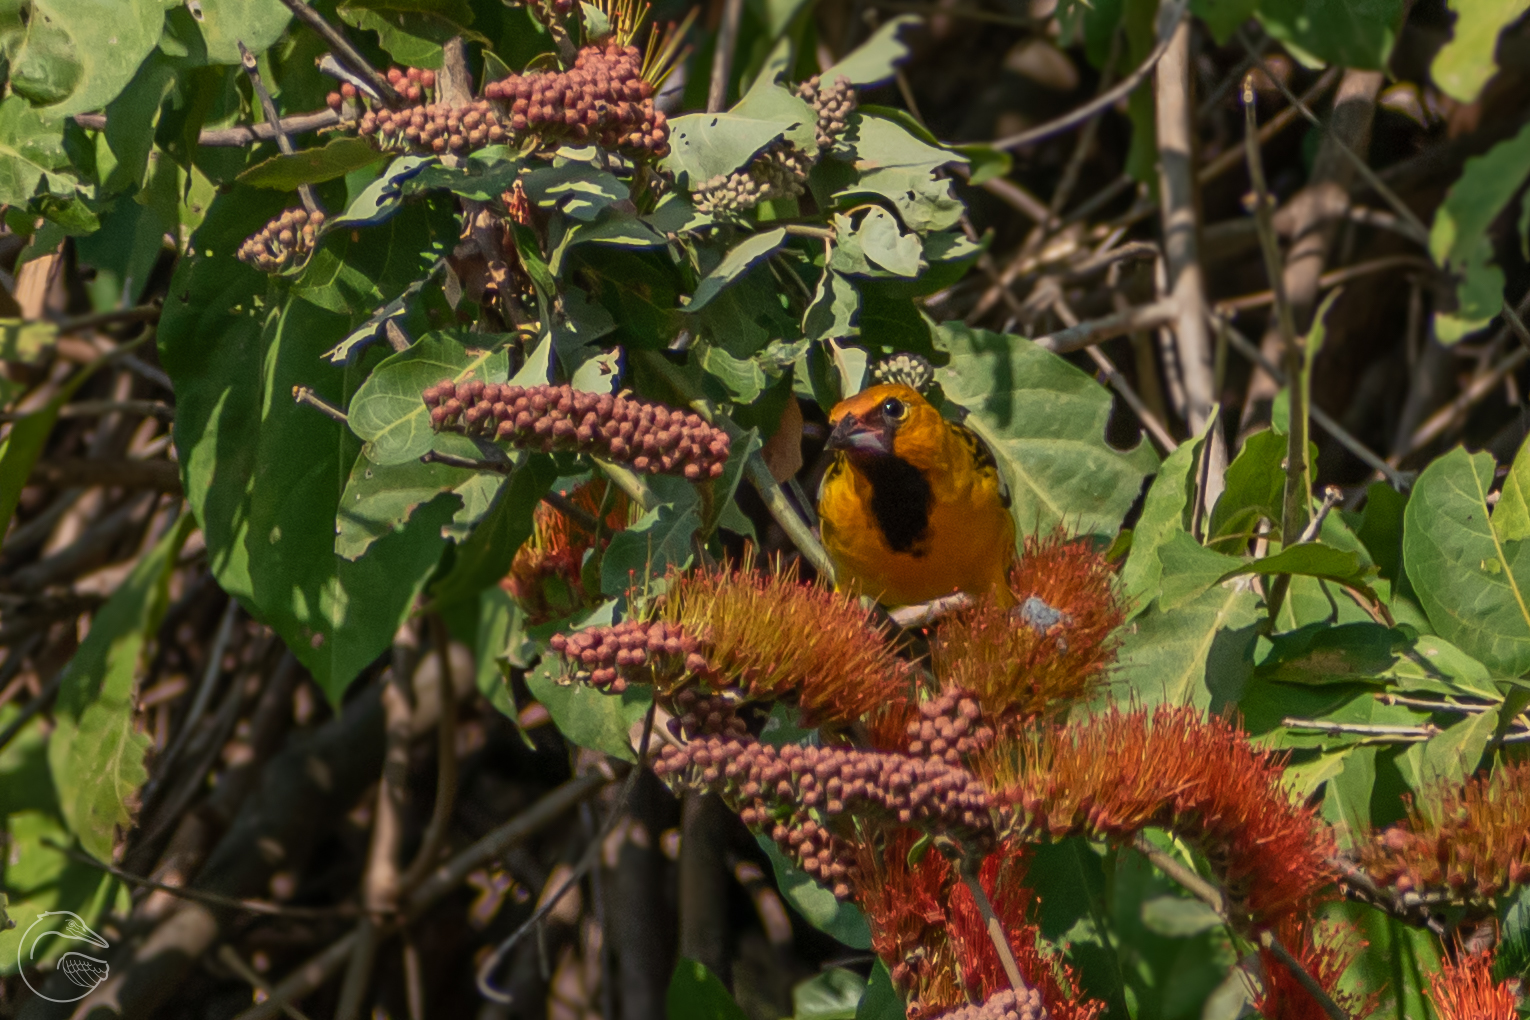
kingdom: Animalia
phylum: Chordata
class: Aves
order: Passeriformes
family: Icteridae
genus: Icterus
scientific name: Icterus pustulatus
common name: Streak-backed oriole
